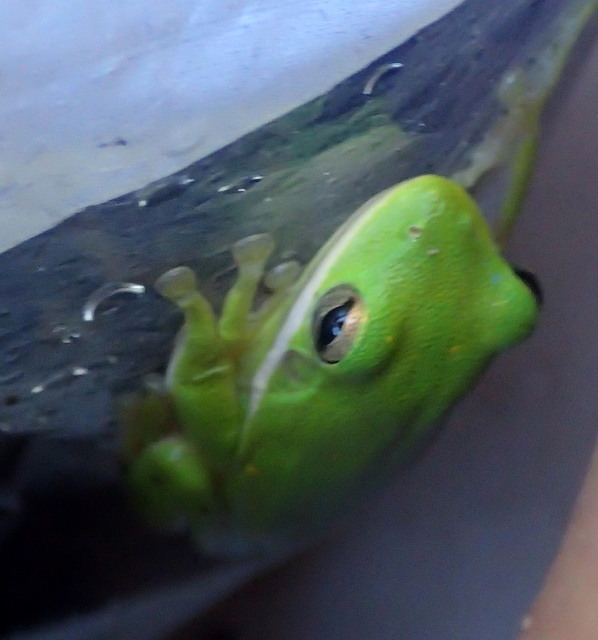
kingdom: Animalia
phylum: Chordata
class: Amphibia
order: Anura
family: Hylidae
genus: Dryophytes
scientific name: Dryophytes cinereus
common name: Green treefrog
